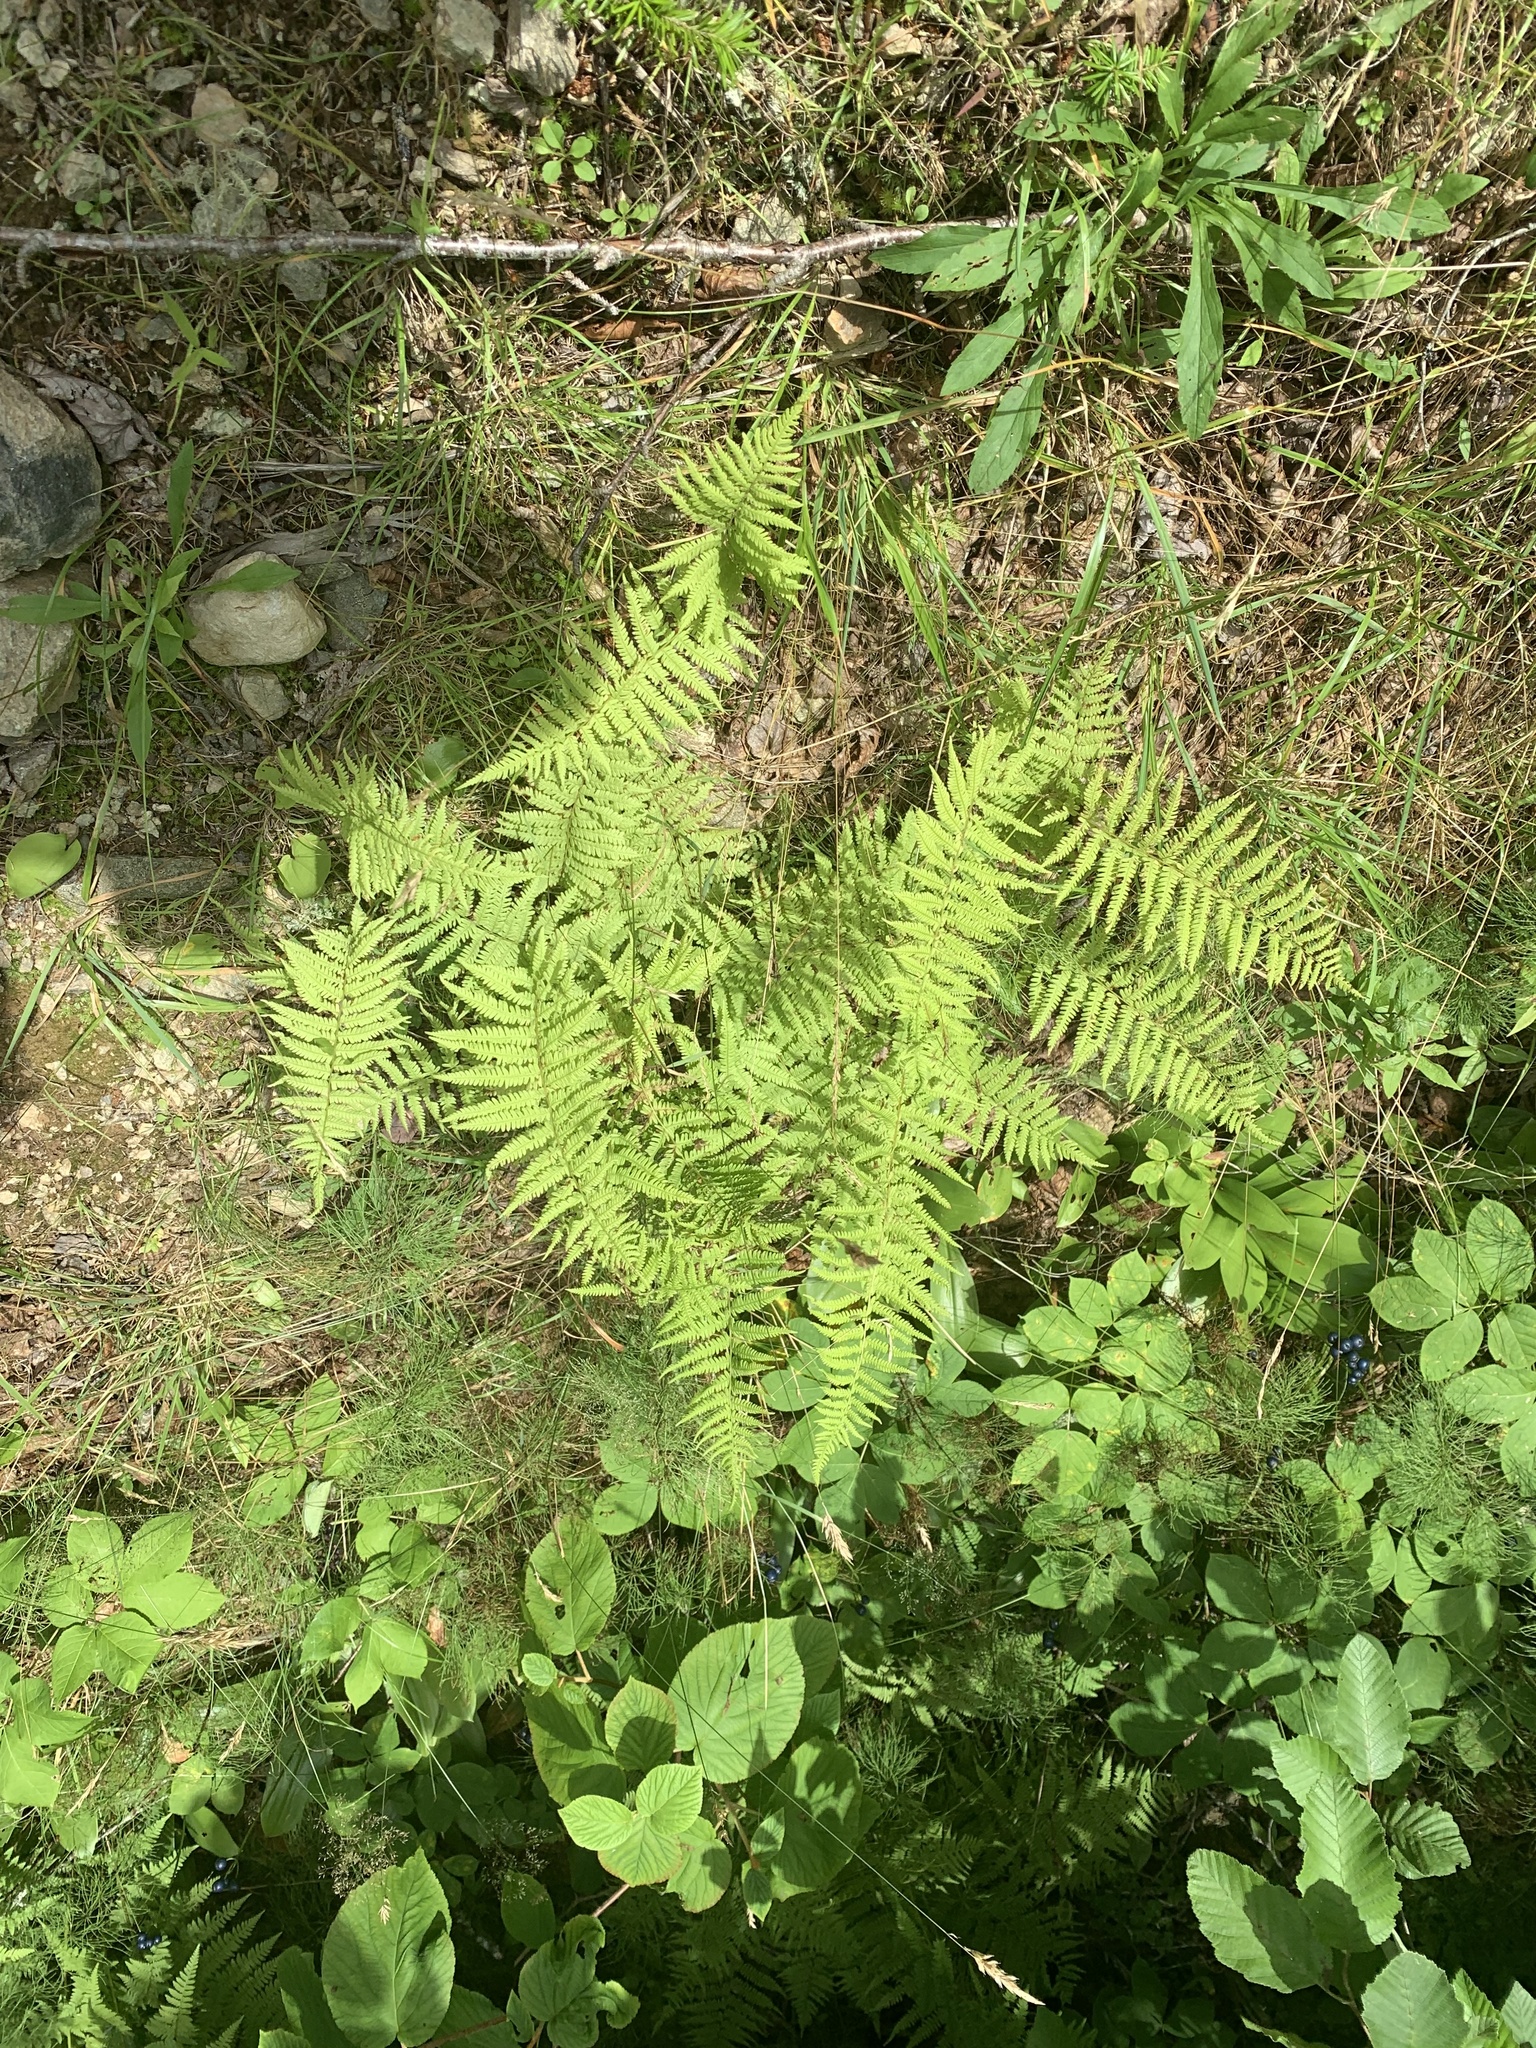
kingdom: Plantae
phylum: Tracheophyta
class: Polypodiopsida
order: Polypodiales
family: Thelypteridaceae
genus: Amauropelta
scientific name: Amauropelta noveboracensis
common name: New york fern
